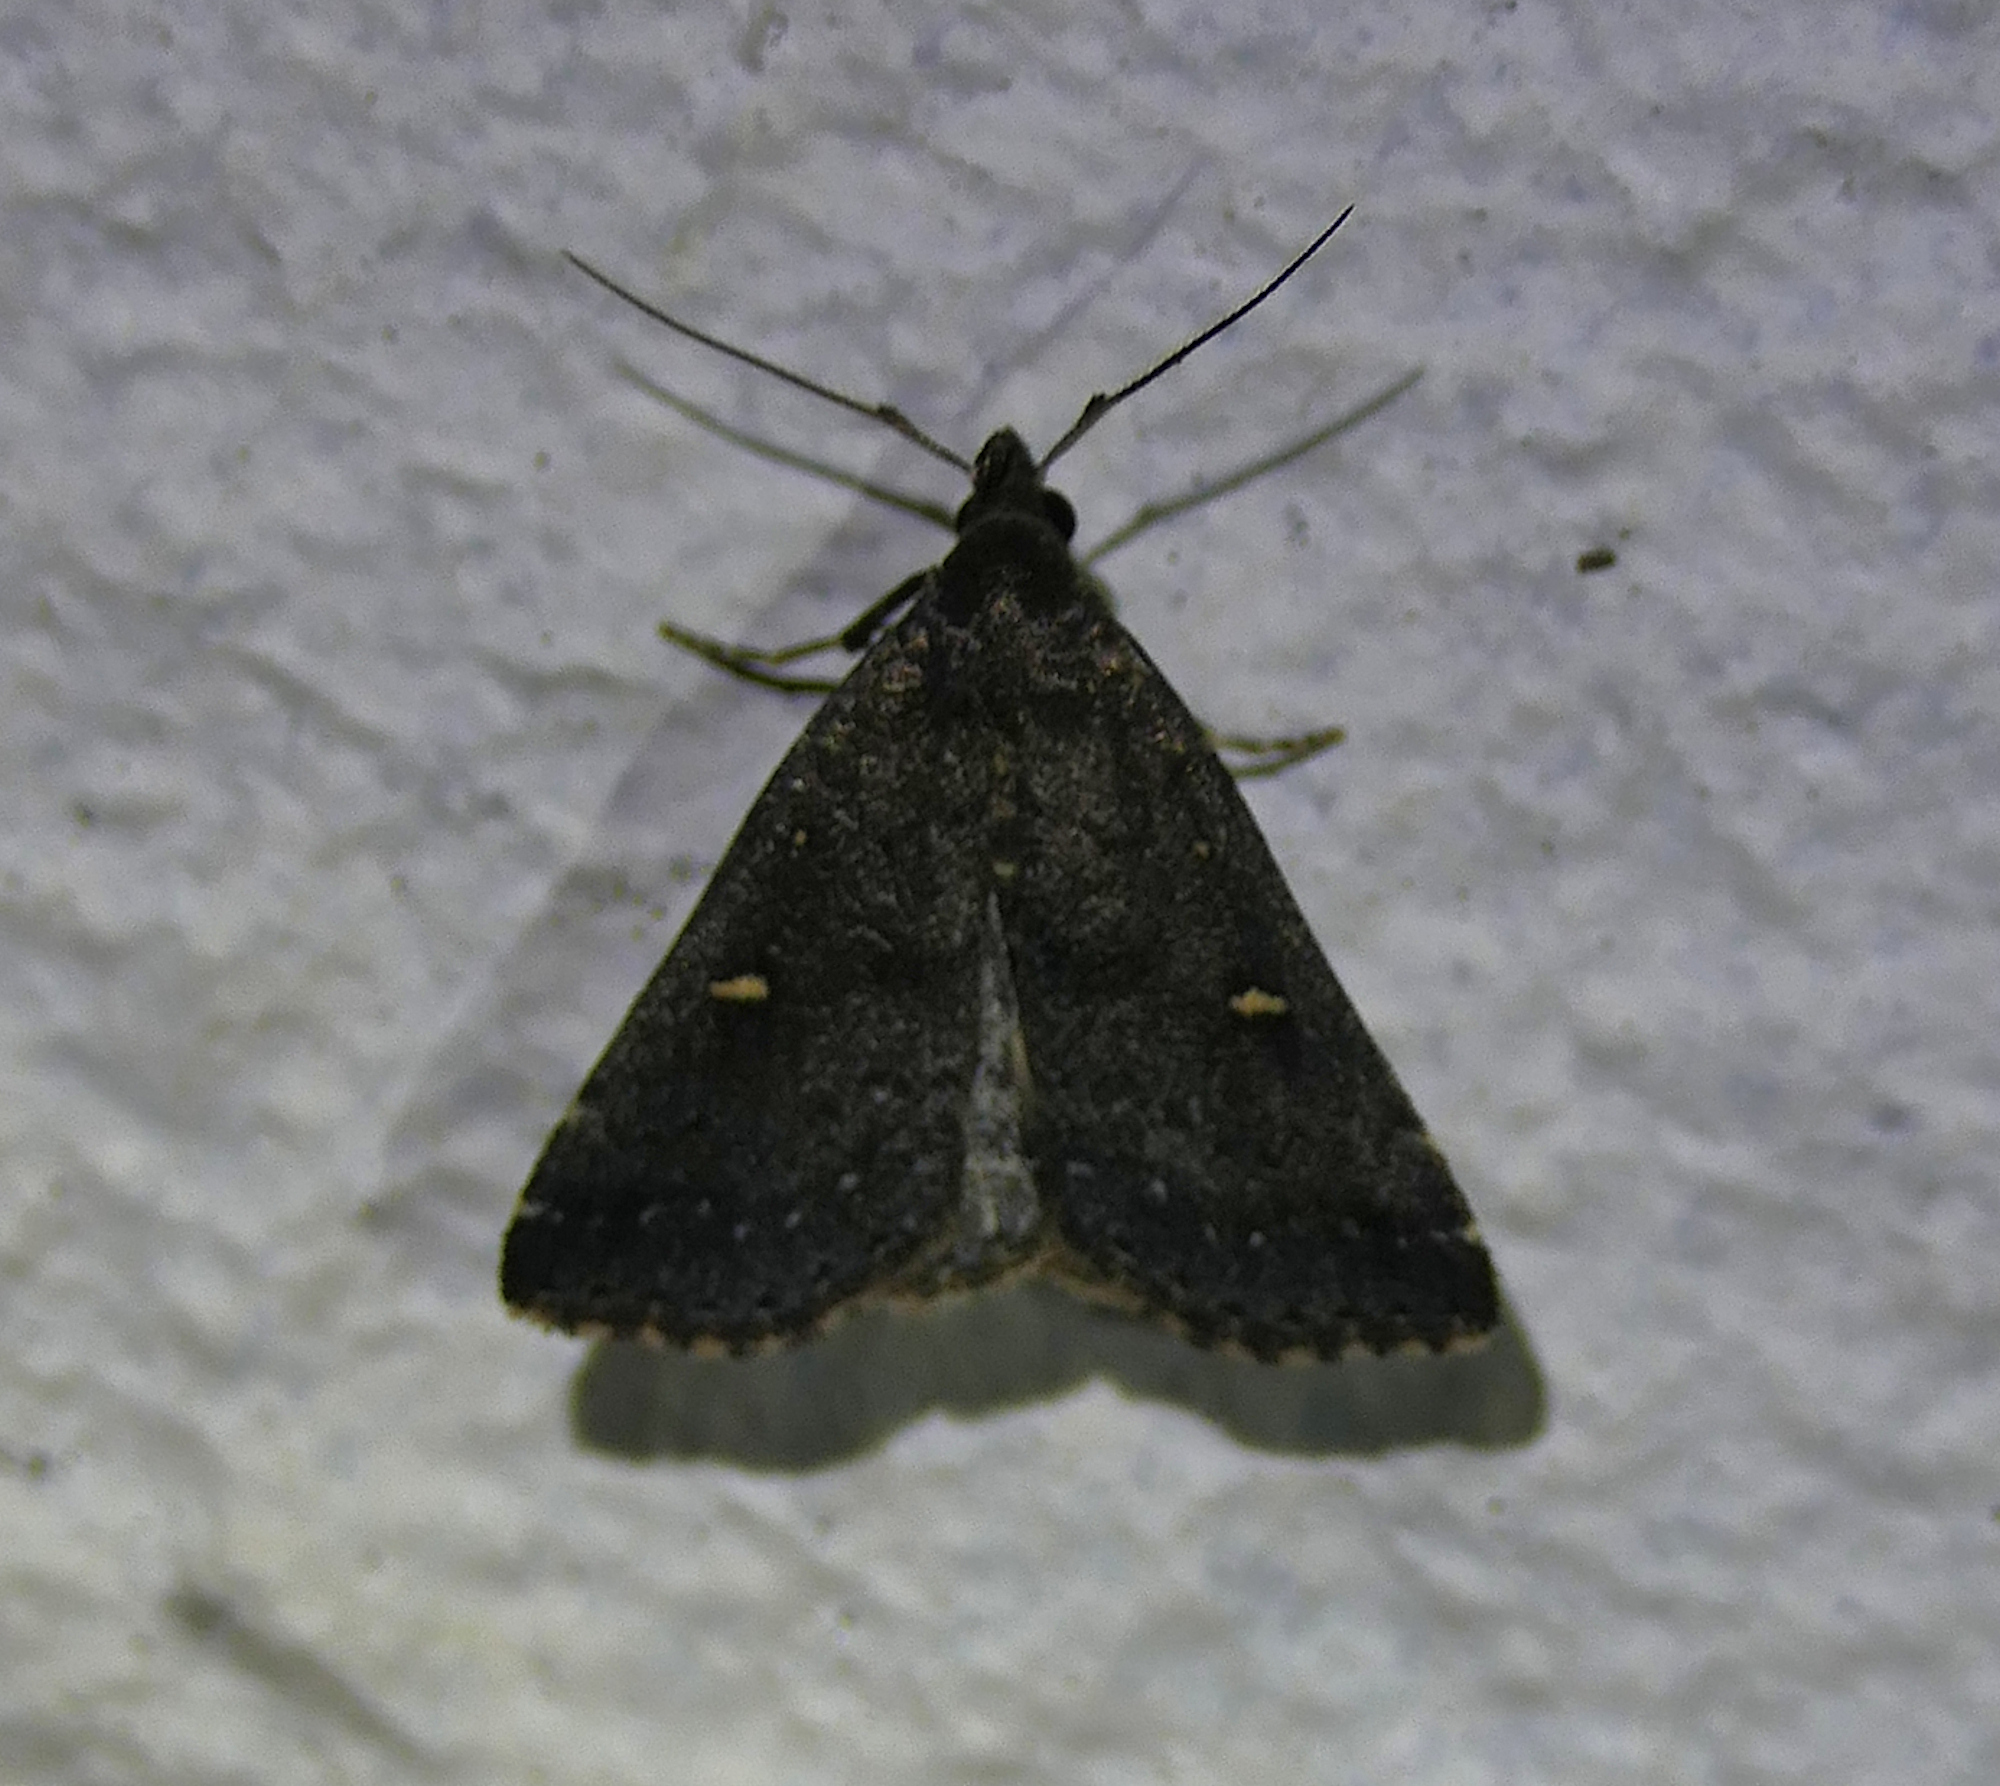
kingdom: Animalia
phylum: Arthropoda
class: Insecta
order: Lepidoptera
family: Erebidae
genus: Tetanolita
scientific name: Tetanolita mynesalis
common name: Smoky tetanolita moth
